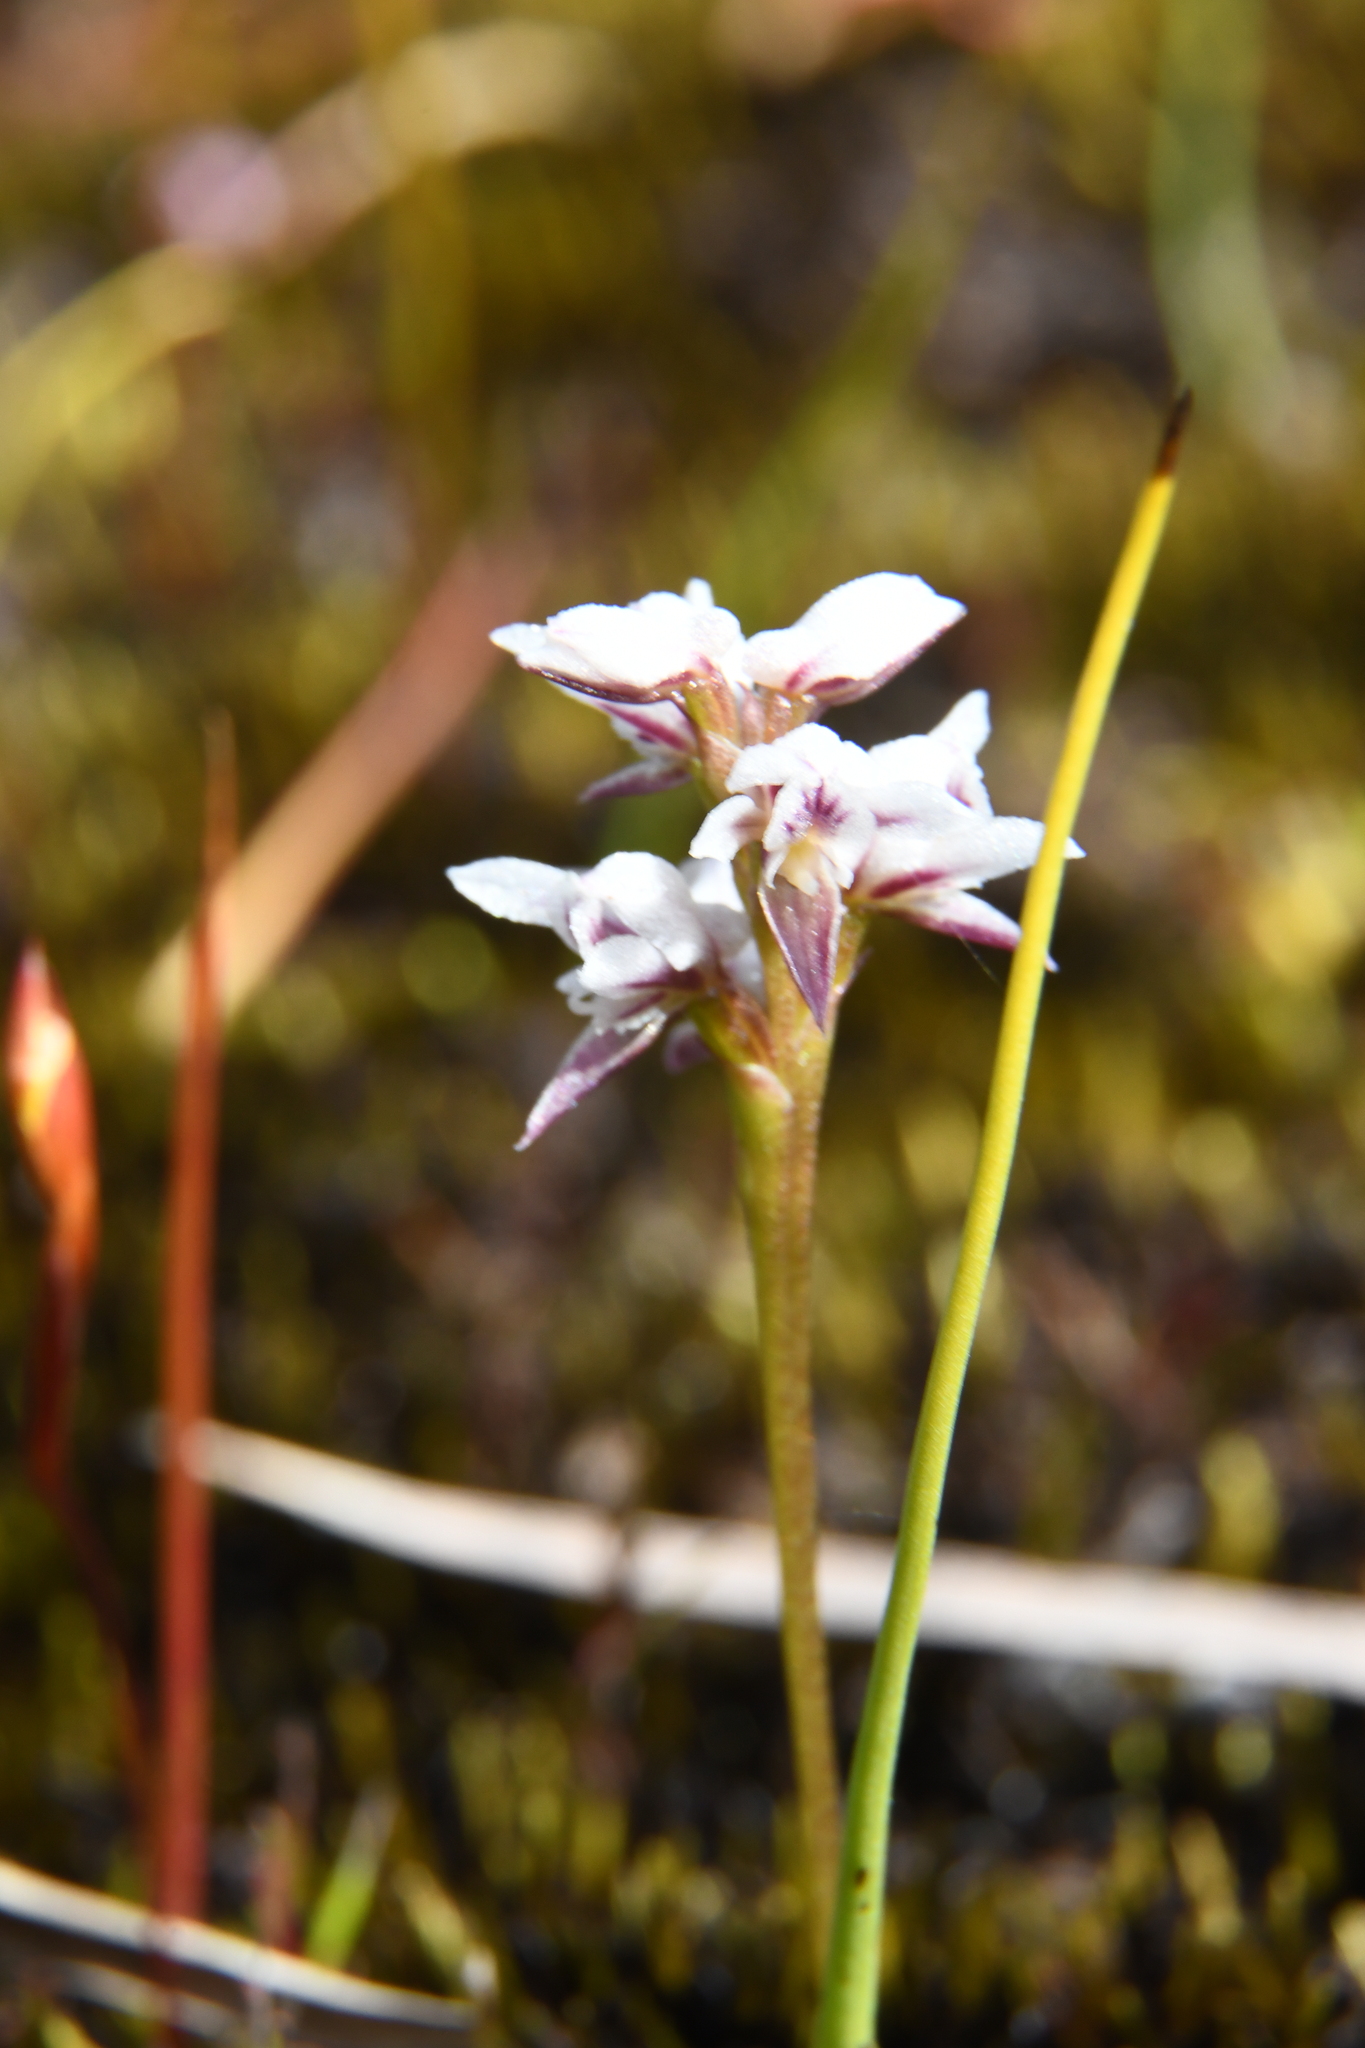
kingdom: Plantae
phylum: Tracheophyta
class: Liliopsida
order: Asparagales
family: Orchidaceae
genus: Prasophyllum
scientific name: Prasophyllum cucullatum
